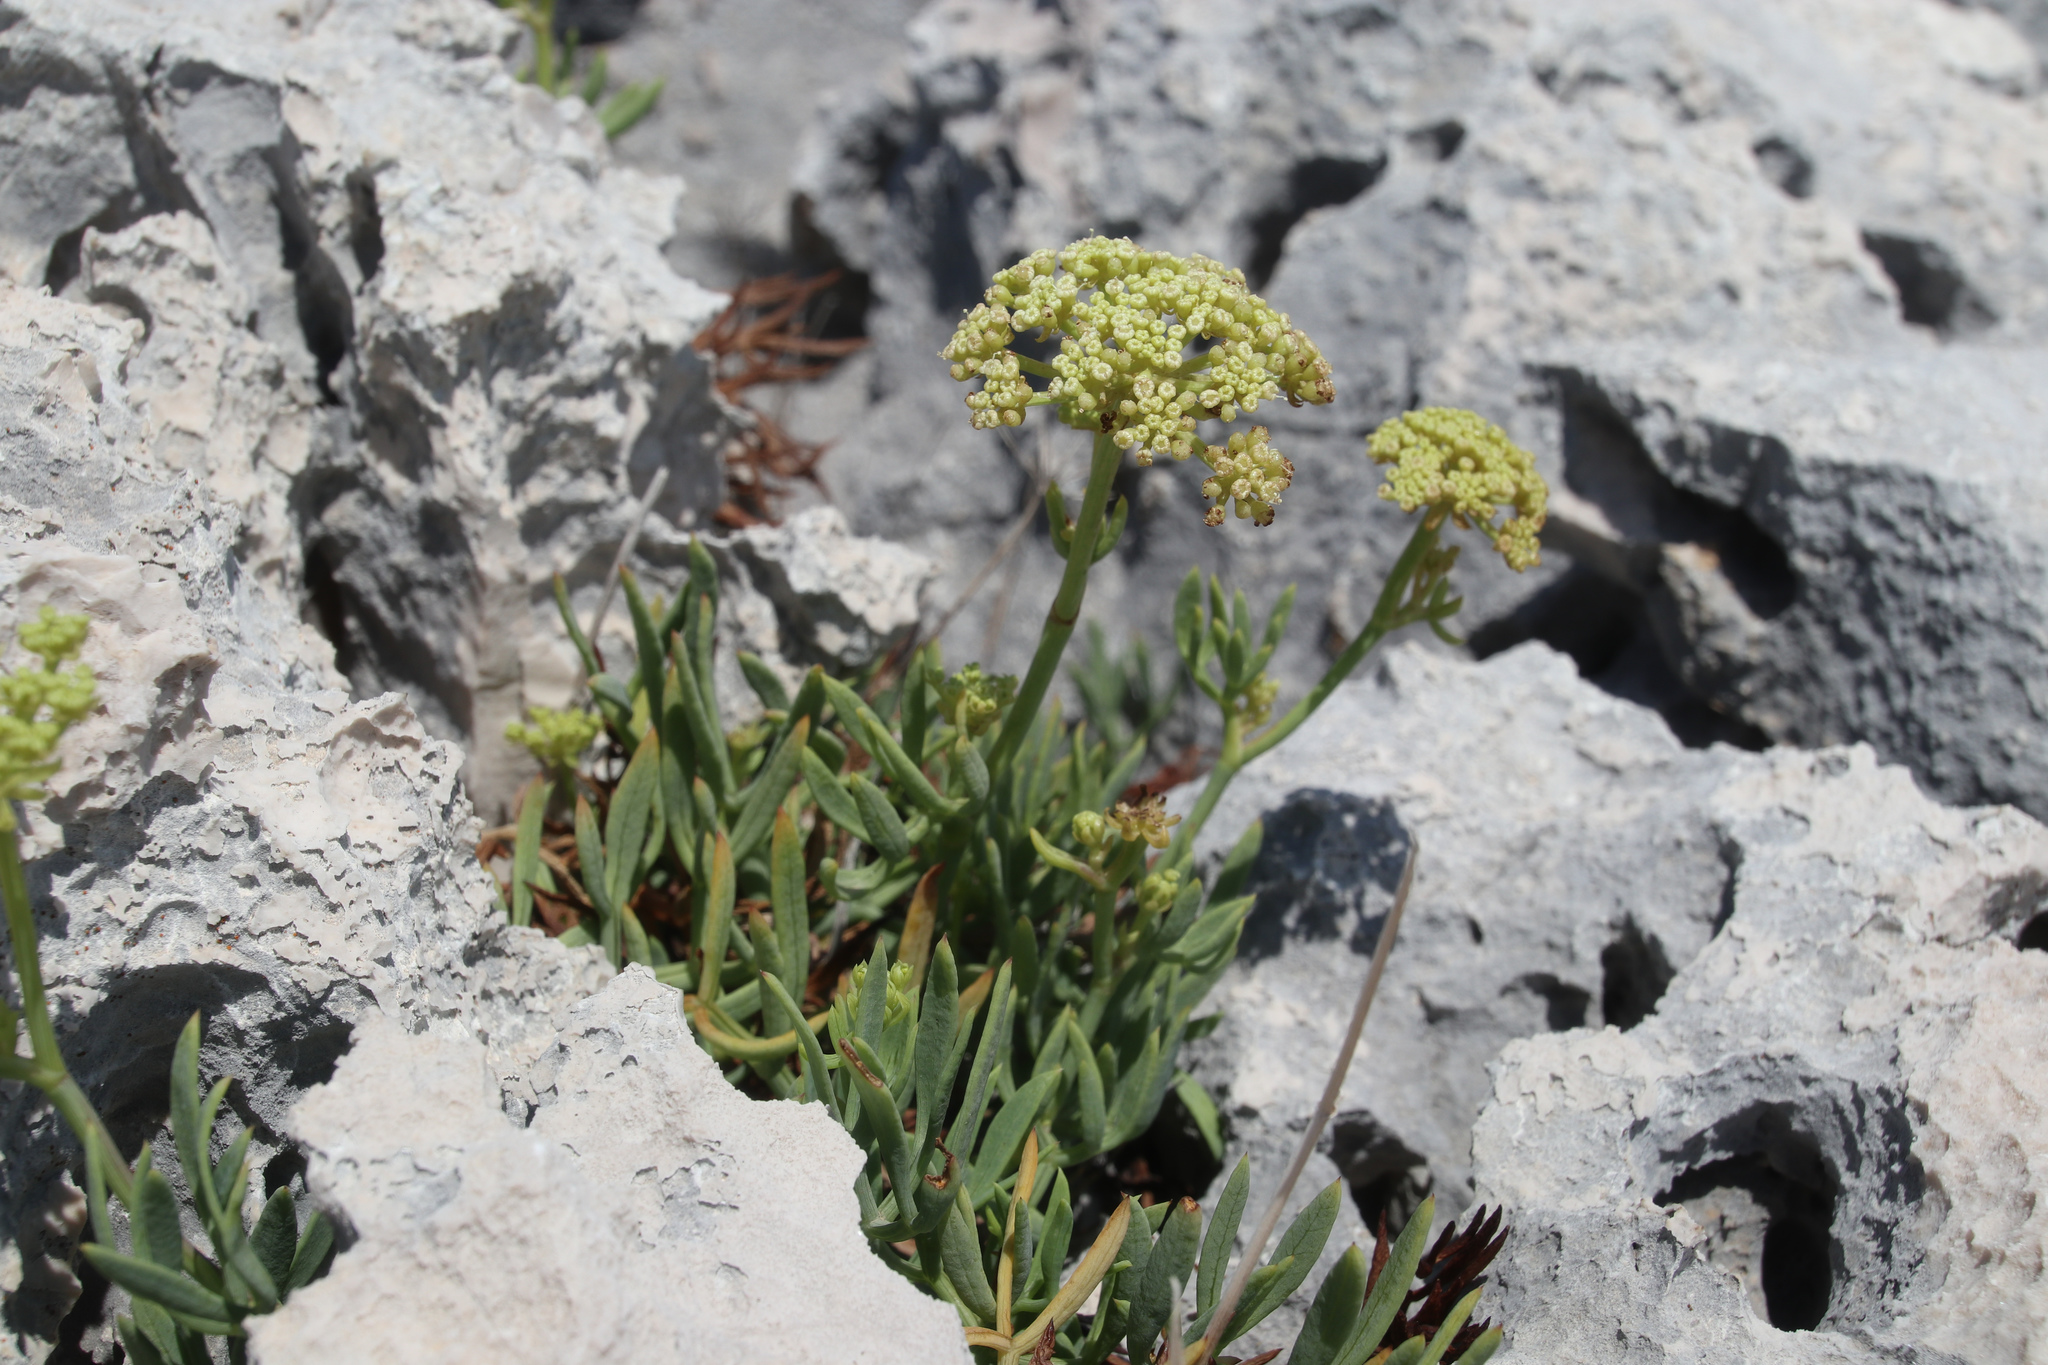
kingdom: Plantae
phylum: Tracheophyta
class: Magnoliopsida
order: Apiales
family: Apiaceae
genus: Crithmum
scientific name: Crithmum maritimum
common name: Rock samphire
